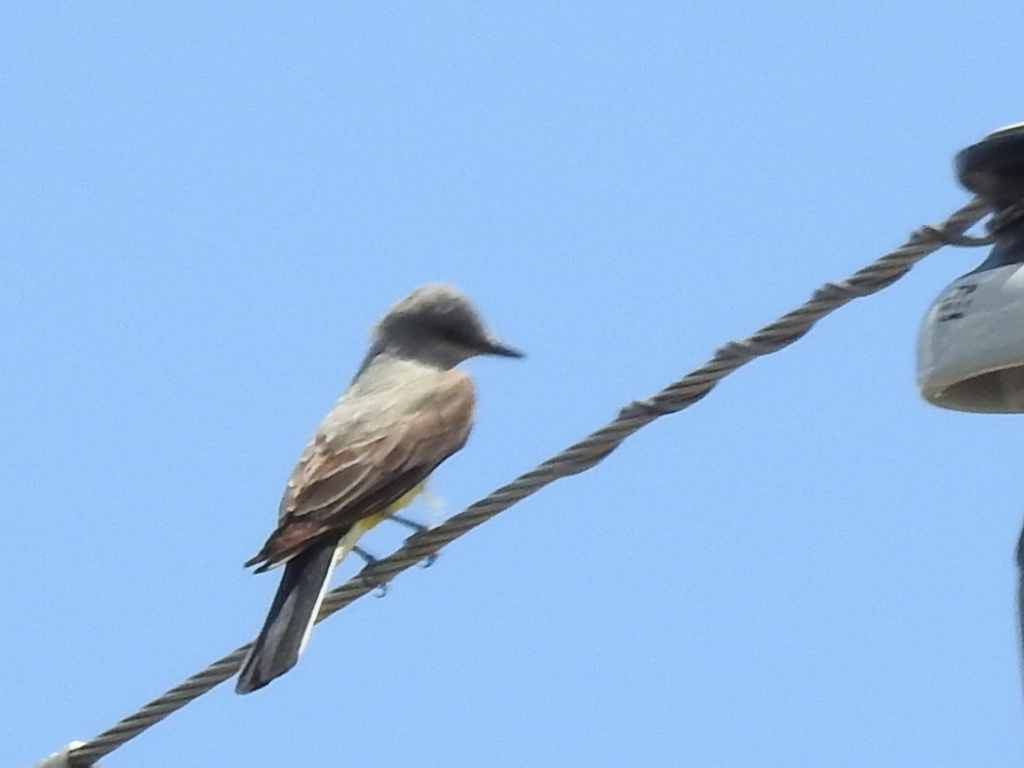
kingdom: Animalia
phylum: Chordata
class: Aves
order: Passeriformes
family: Tyrannidae
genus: Tyrannus
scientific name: Tyrannus verticalis
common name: Western kingbird
